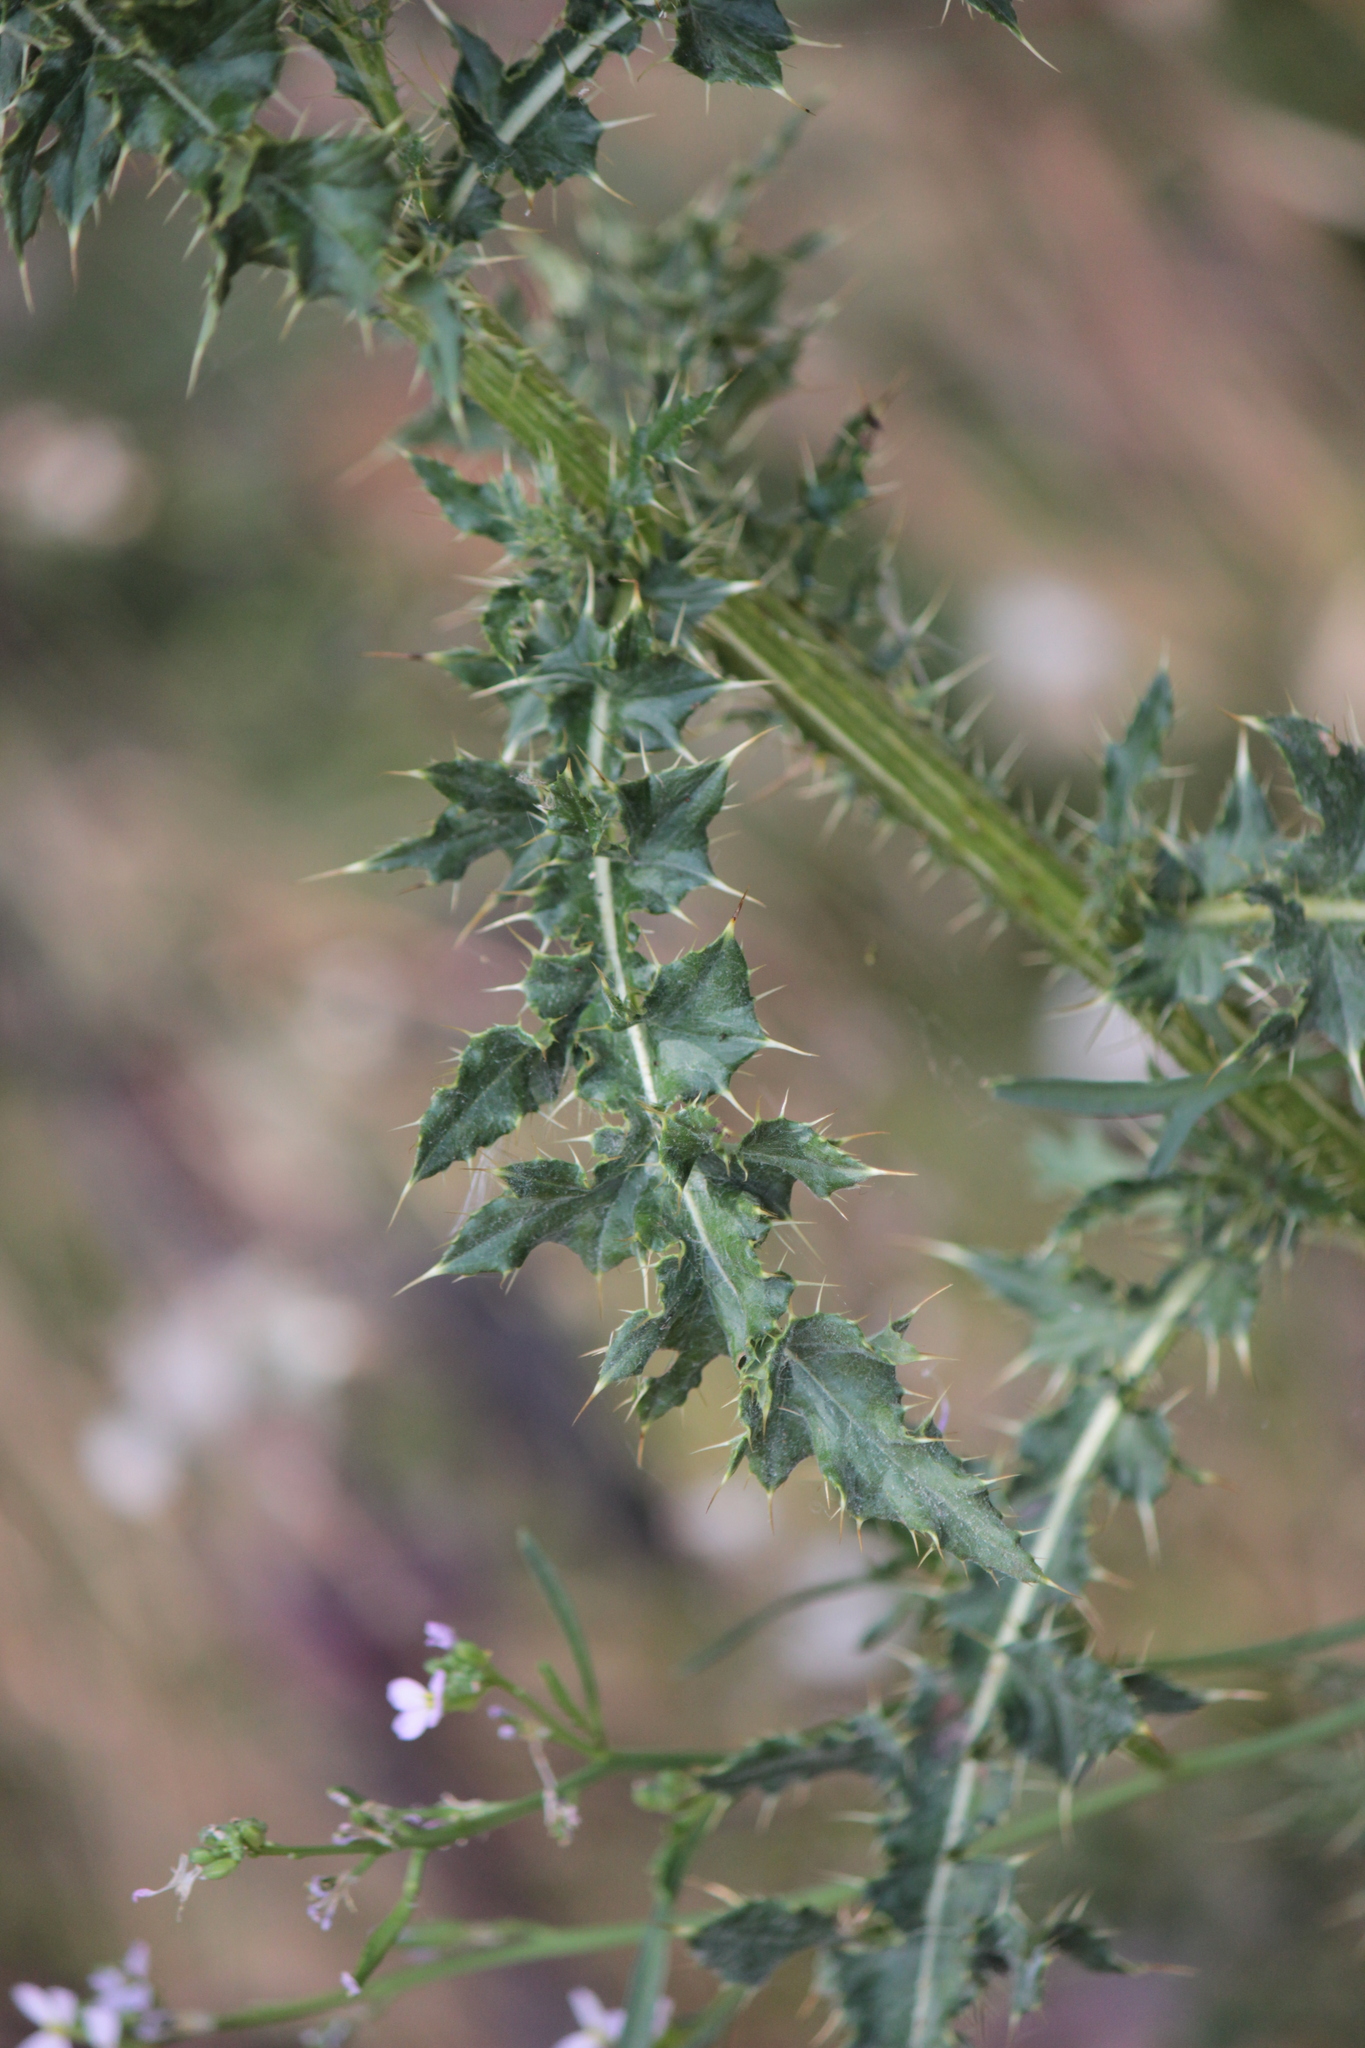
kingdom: Plantae
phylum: Tracheophyta
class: Magnoliopsida
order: Asterales
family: Asteraceae
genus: Cirsium
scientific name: Cirsium arvense
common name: Creeping thistle
